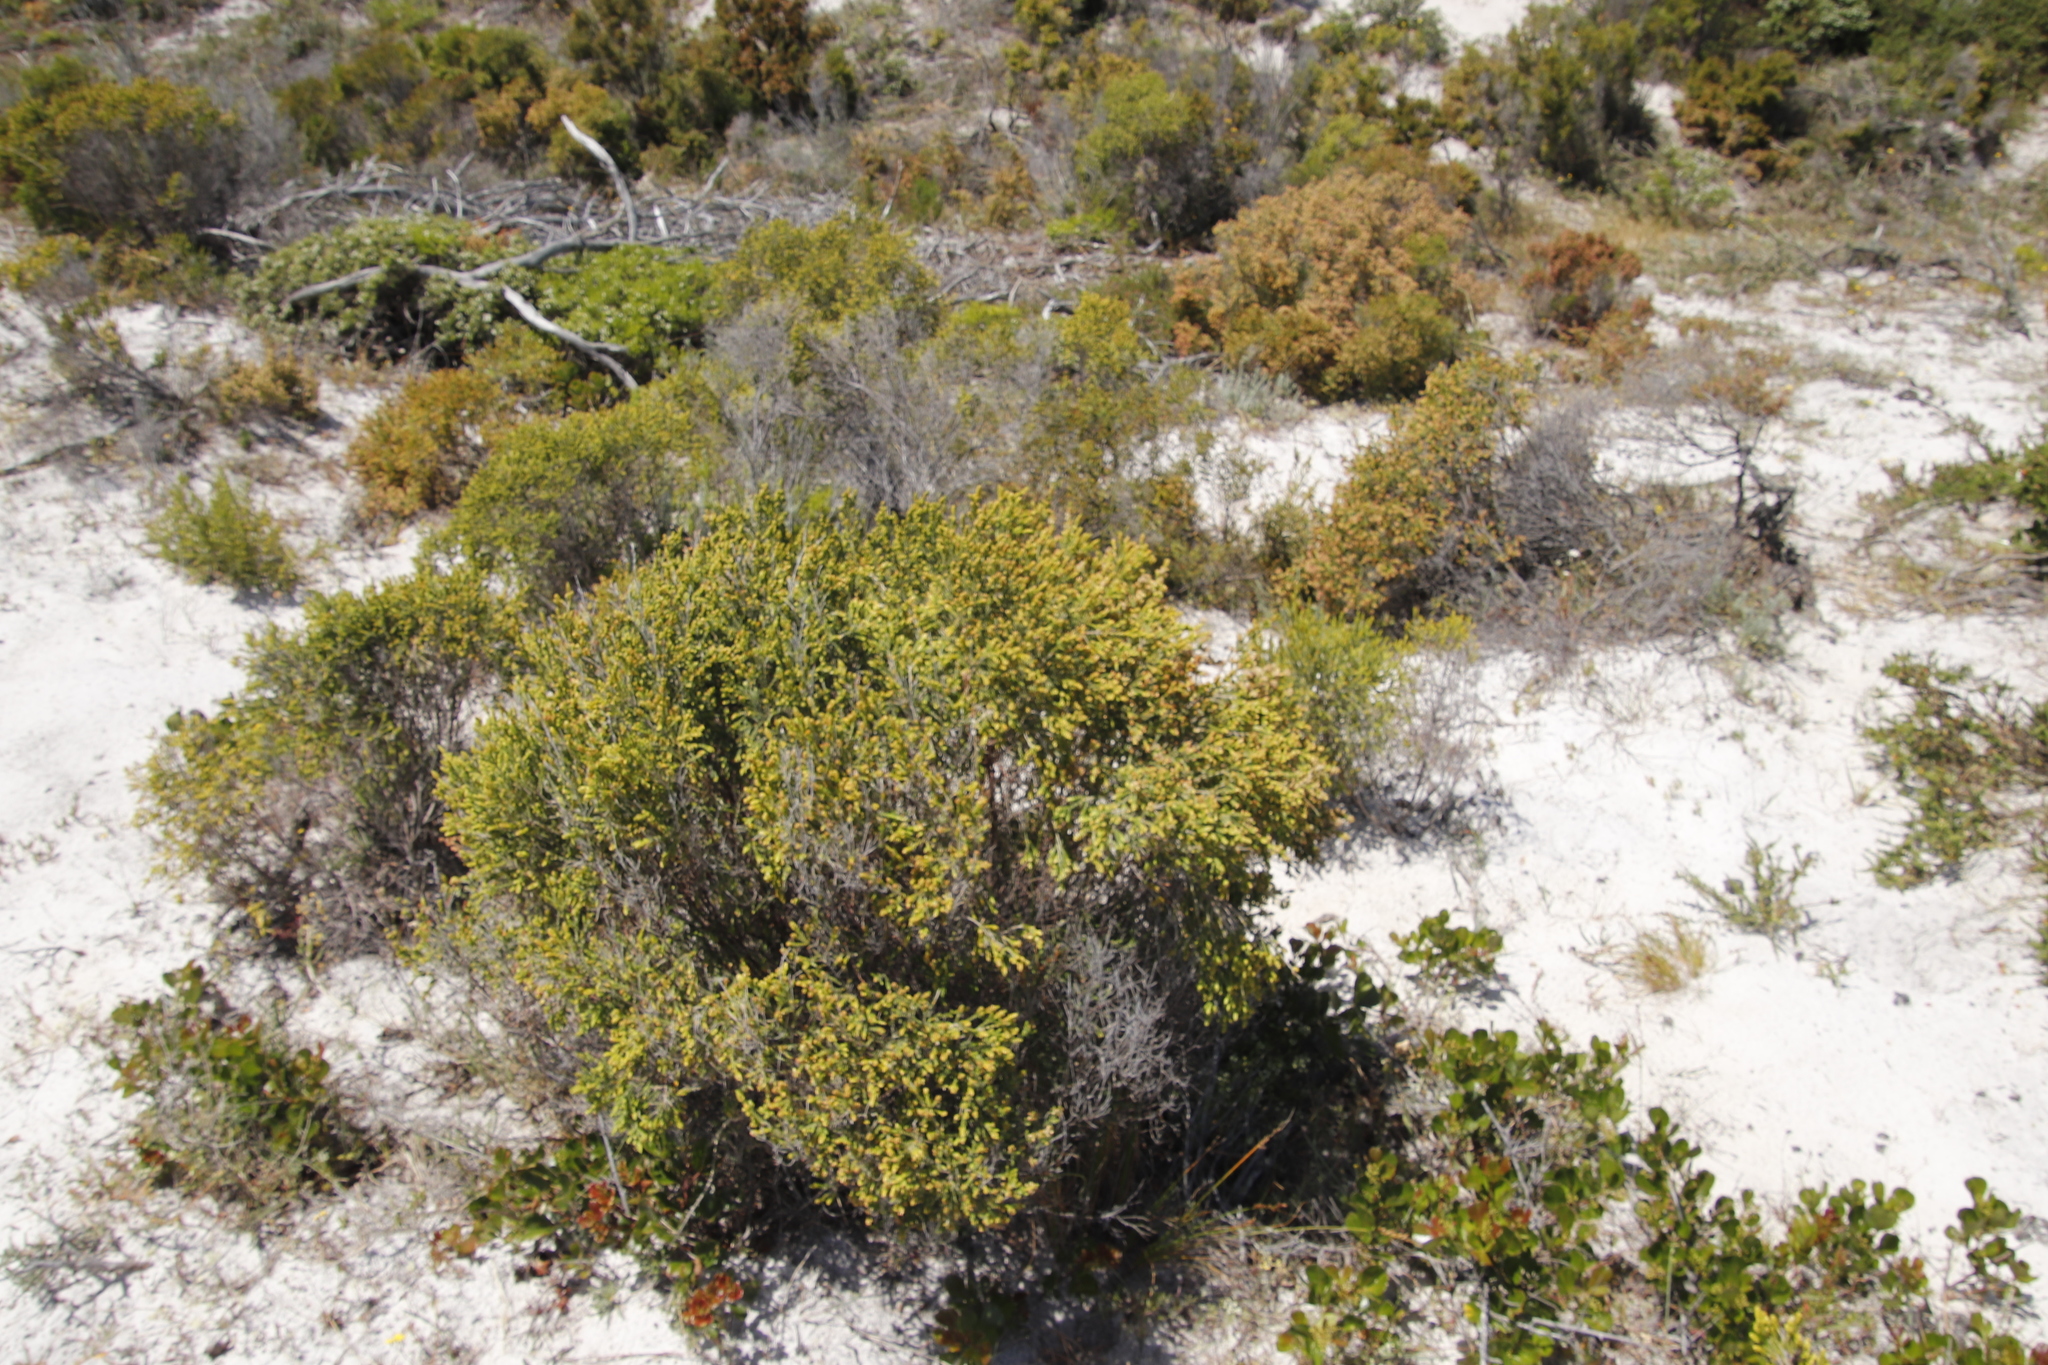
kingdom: Plantae
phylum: Tracheophyta
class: Magnoliopsida
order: Malvales
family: Thymelaeaceae
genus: Passerina
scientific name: Passerina paleacea
